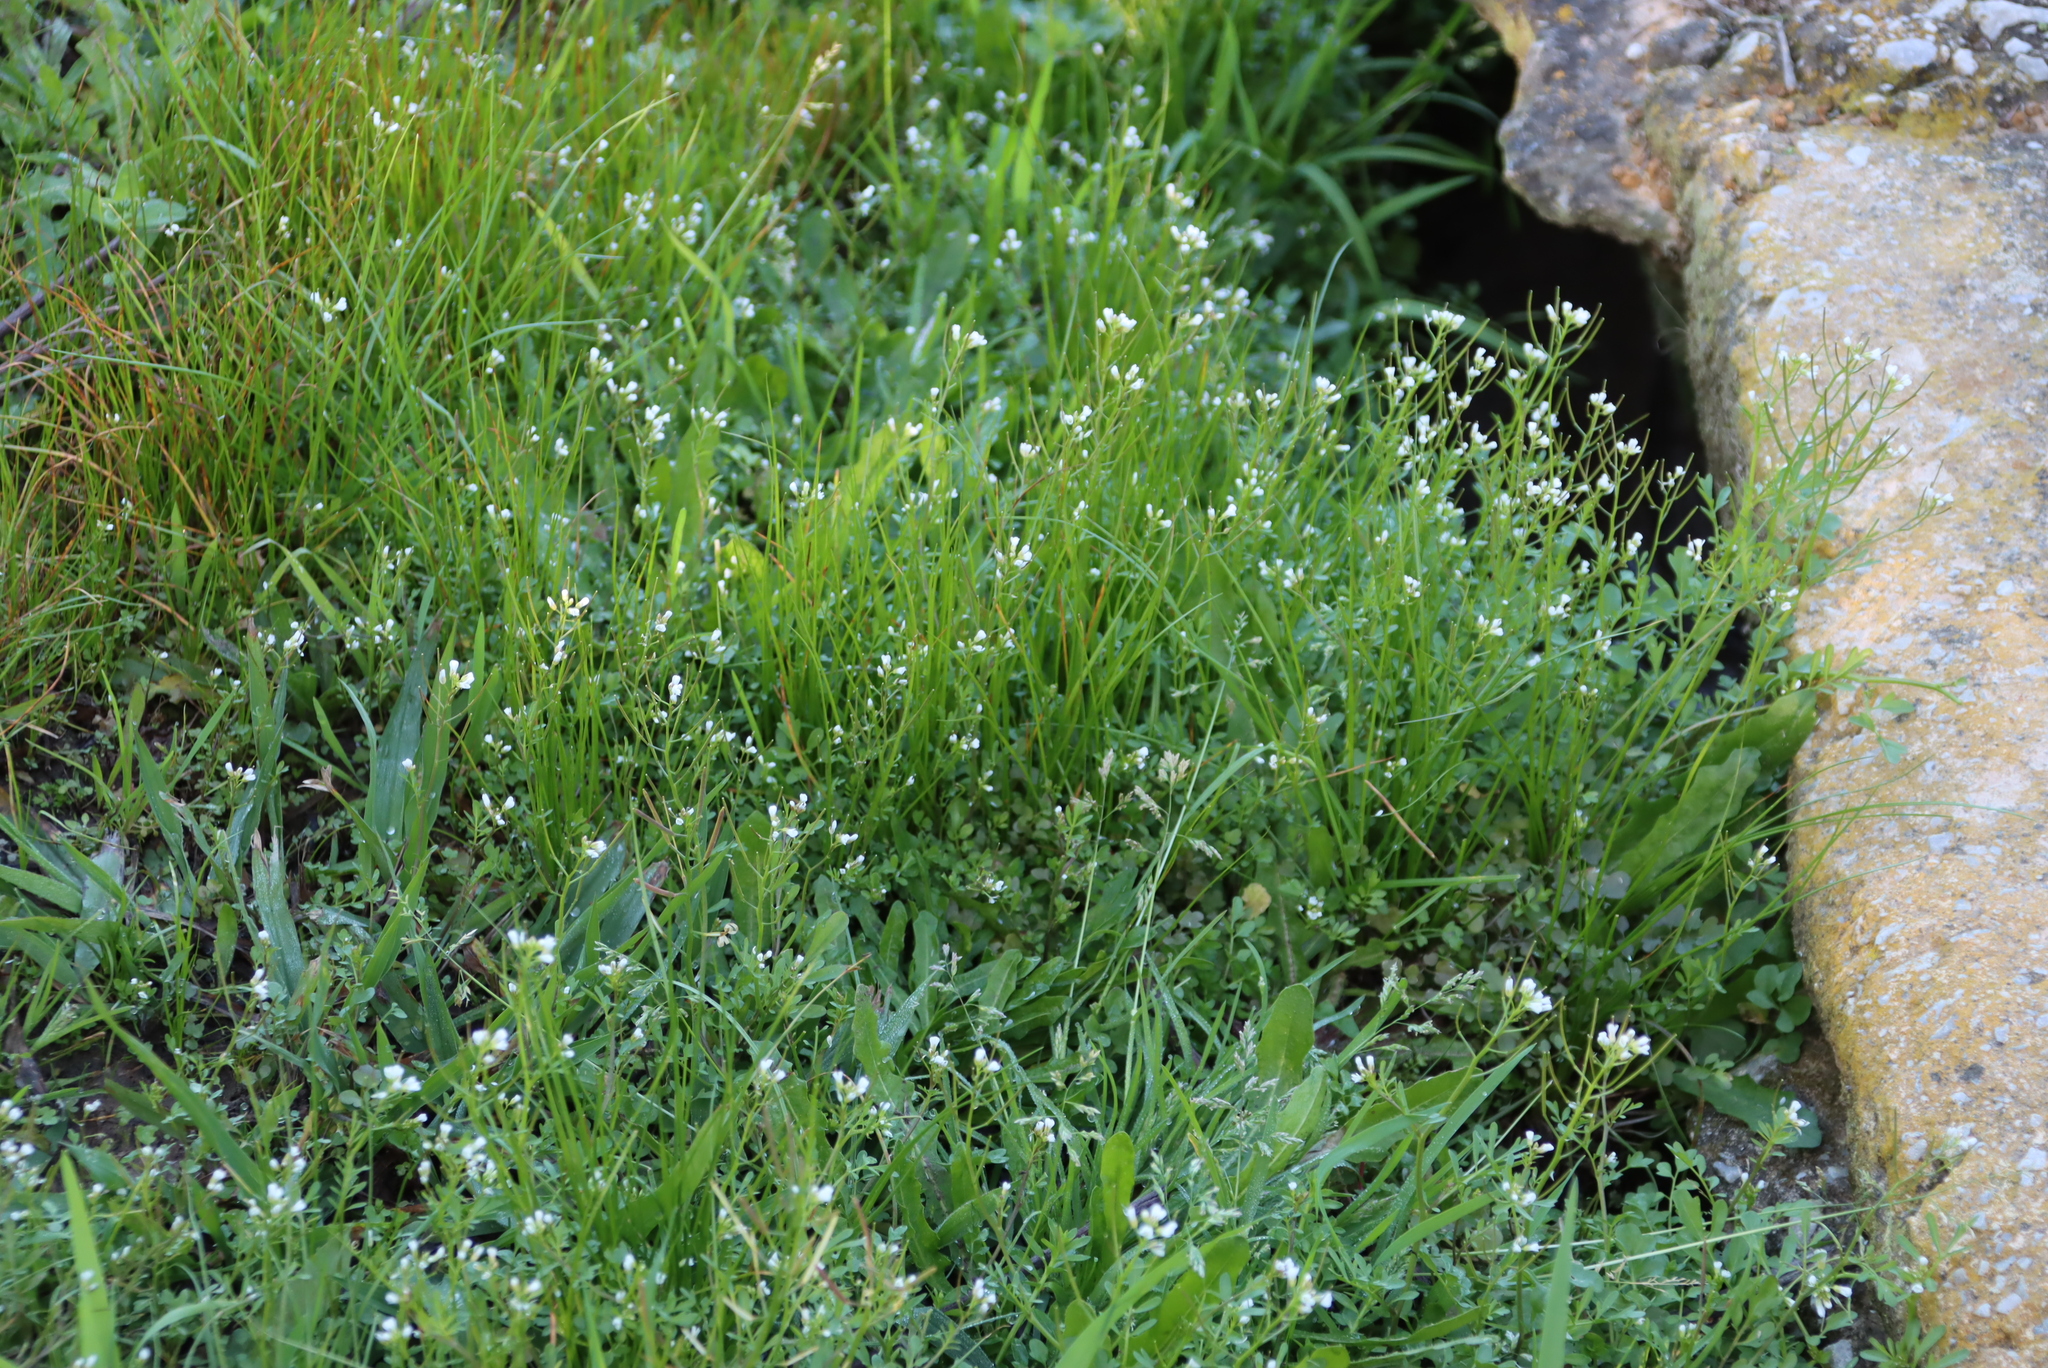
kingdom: Plantae
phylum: Tracheophyta
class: Magnoliopsida
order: Brassicales
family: Brassicaceae
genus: Cardamine
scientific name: Cardamine hirsuta
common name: Hairy bittercress
